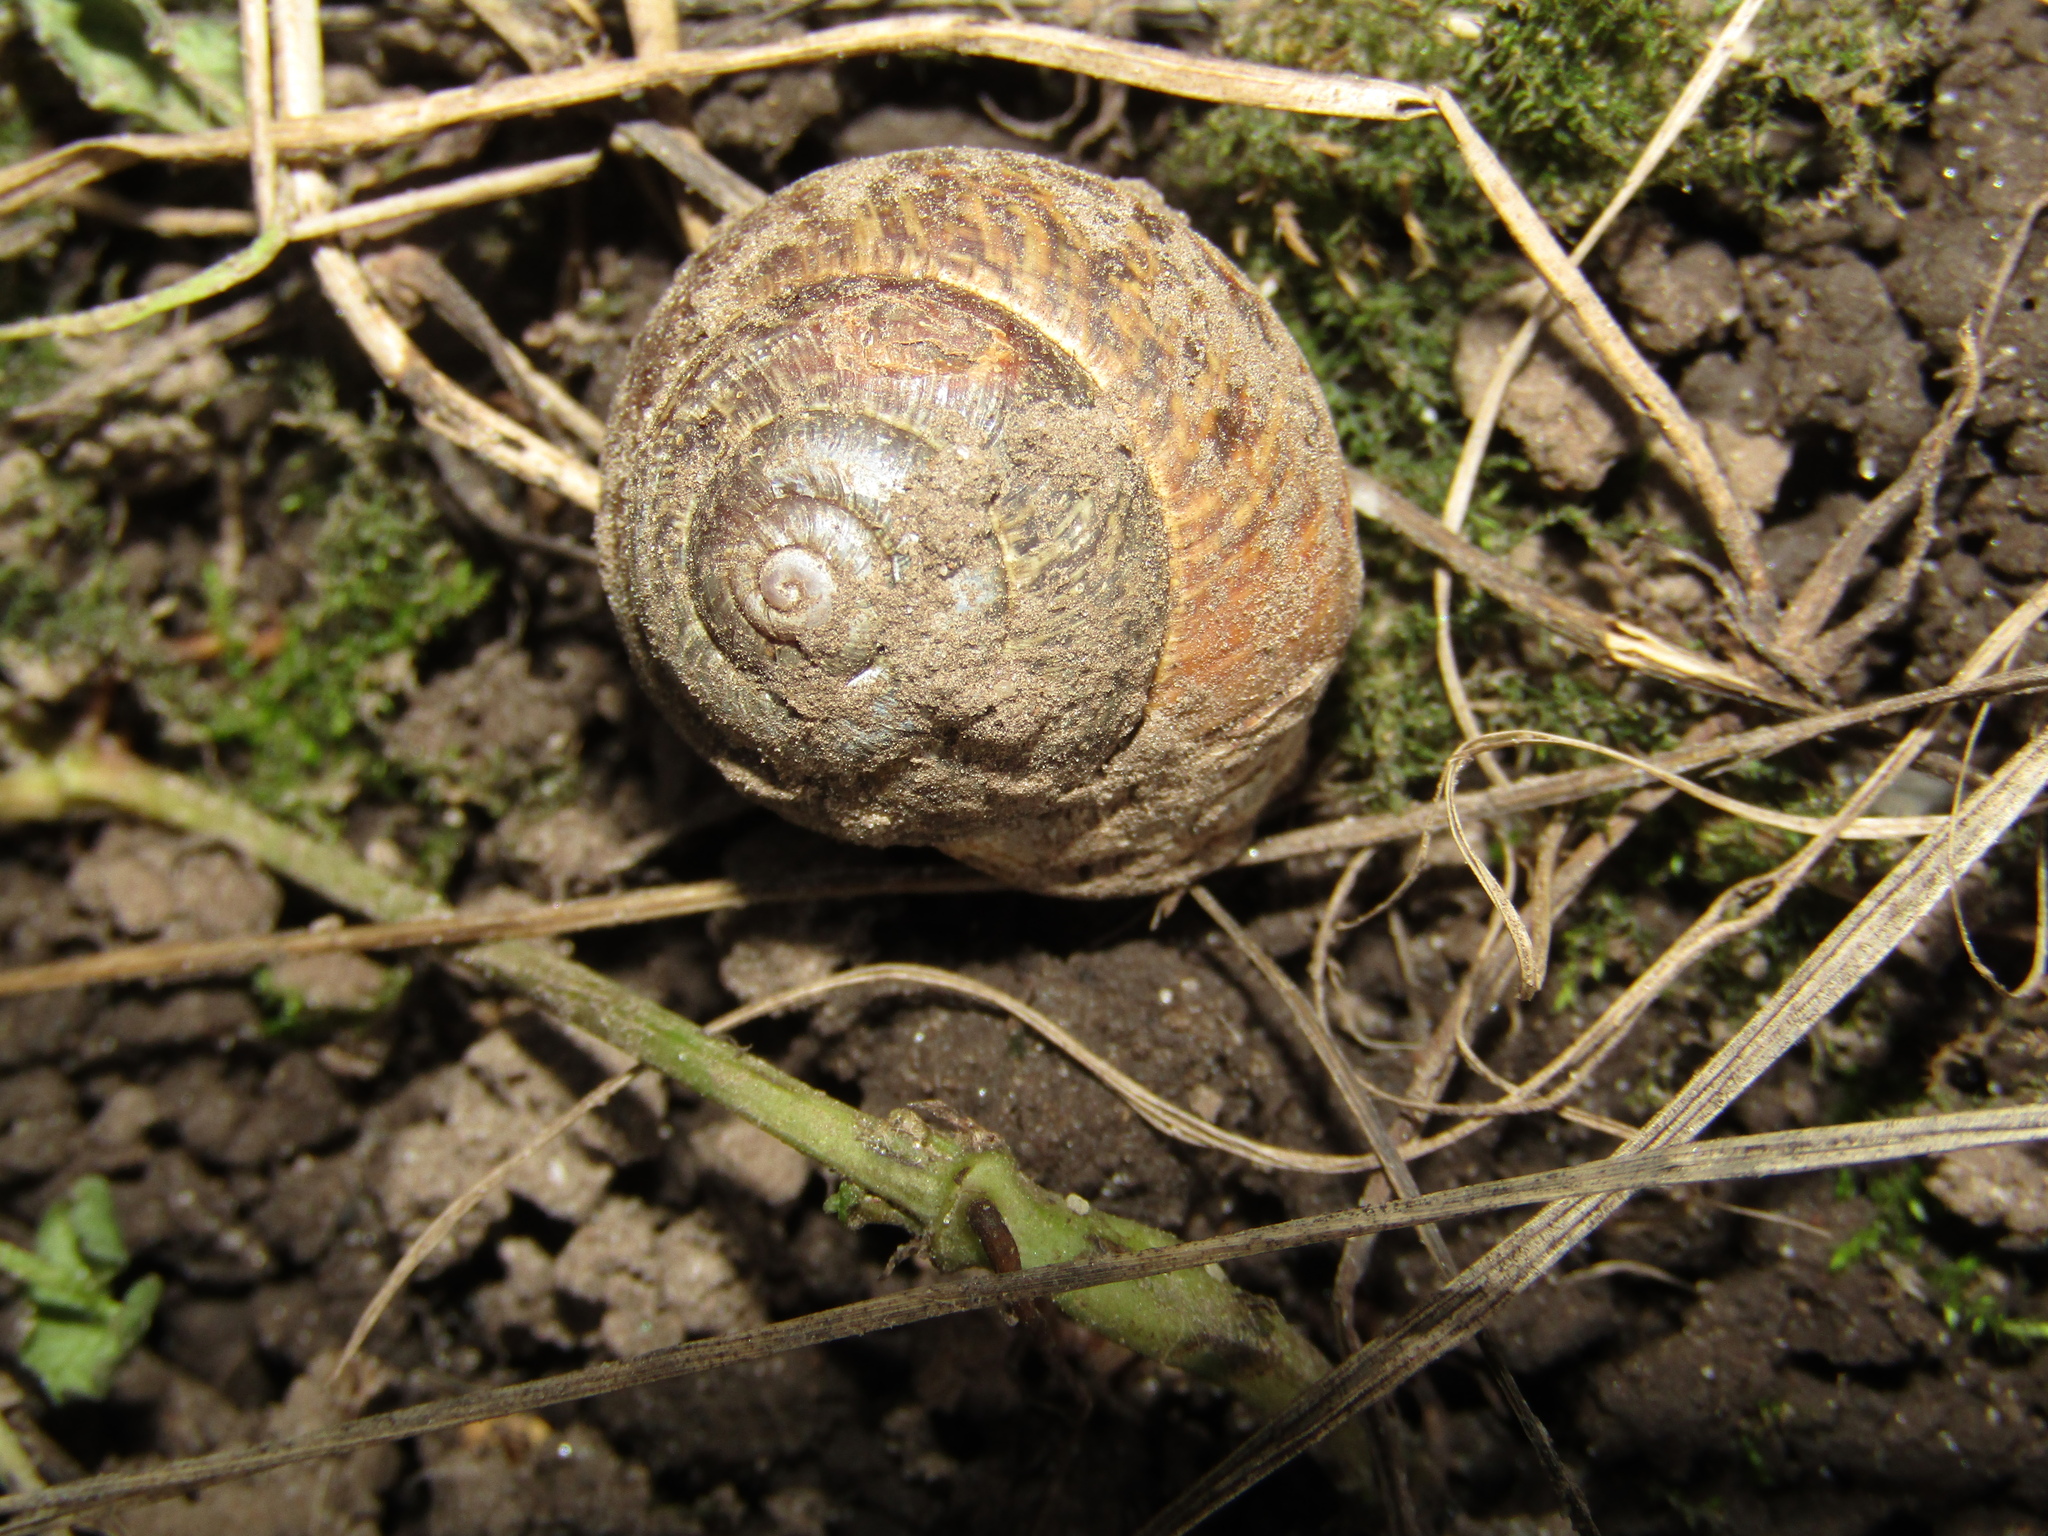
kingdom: Animalia
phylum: Mollusca
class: Gastropoda
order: Stylommatophora
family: Helicidae
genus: Arianta
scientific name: Arianta arbustorum
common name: Copse snail
